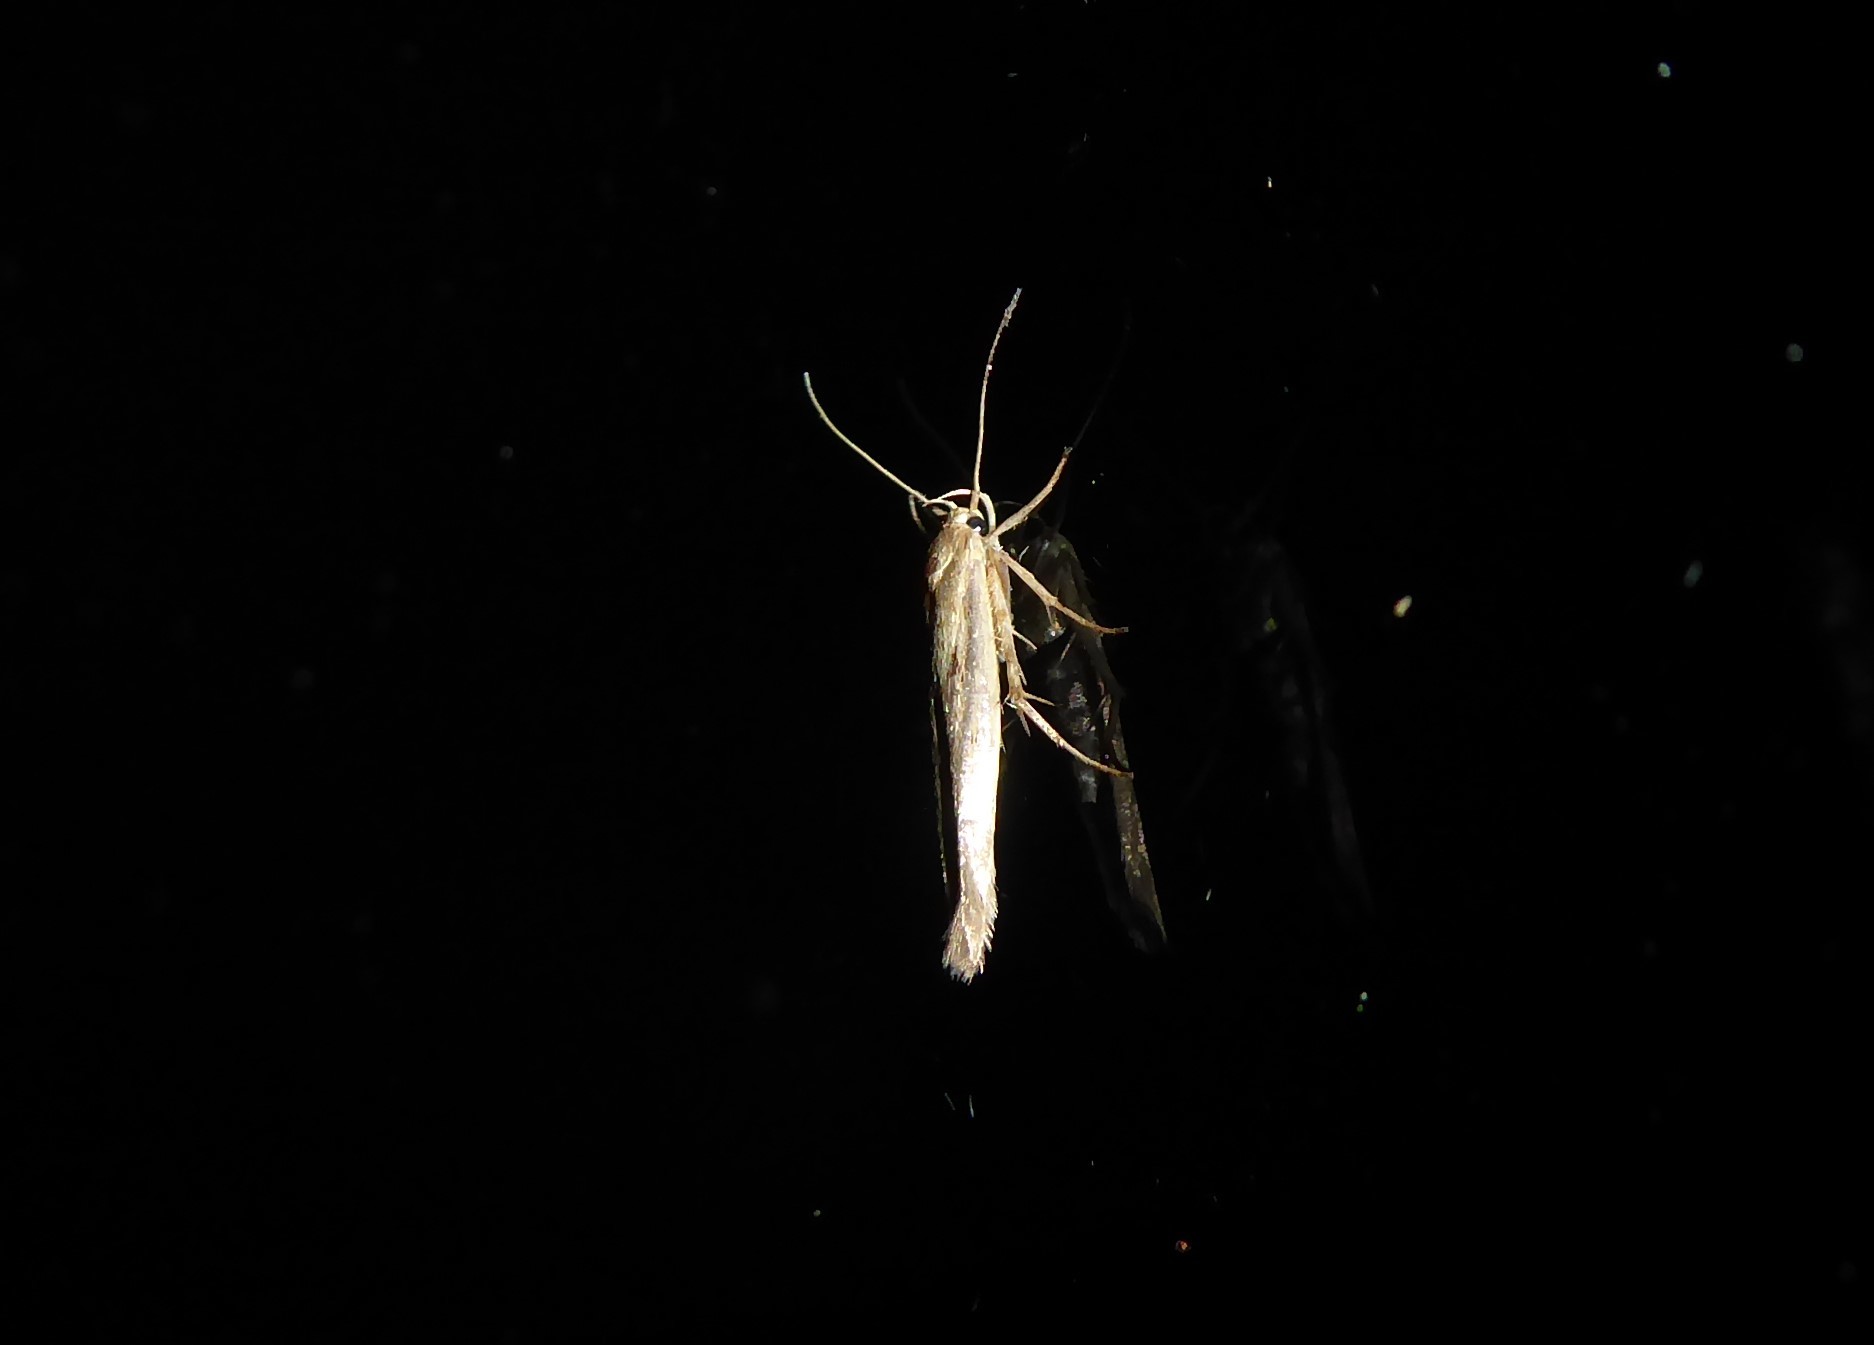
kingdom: Animalia
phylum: Arthropoda
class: Insecta
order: Lepidoptera
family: Stathmopodidae
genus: Stathmopoda
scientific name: Stathmopoda plumbiflua
